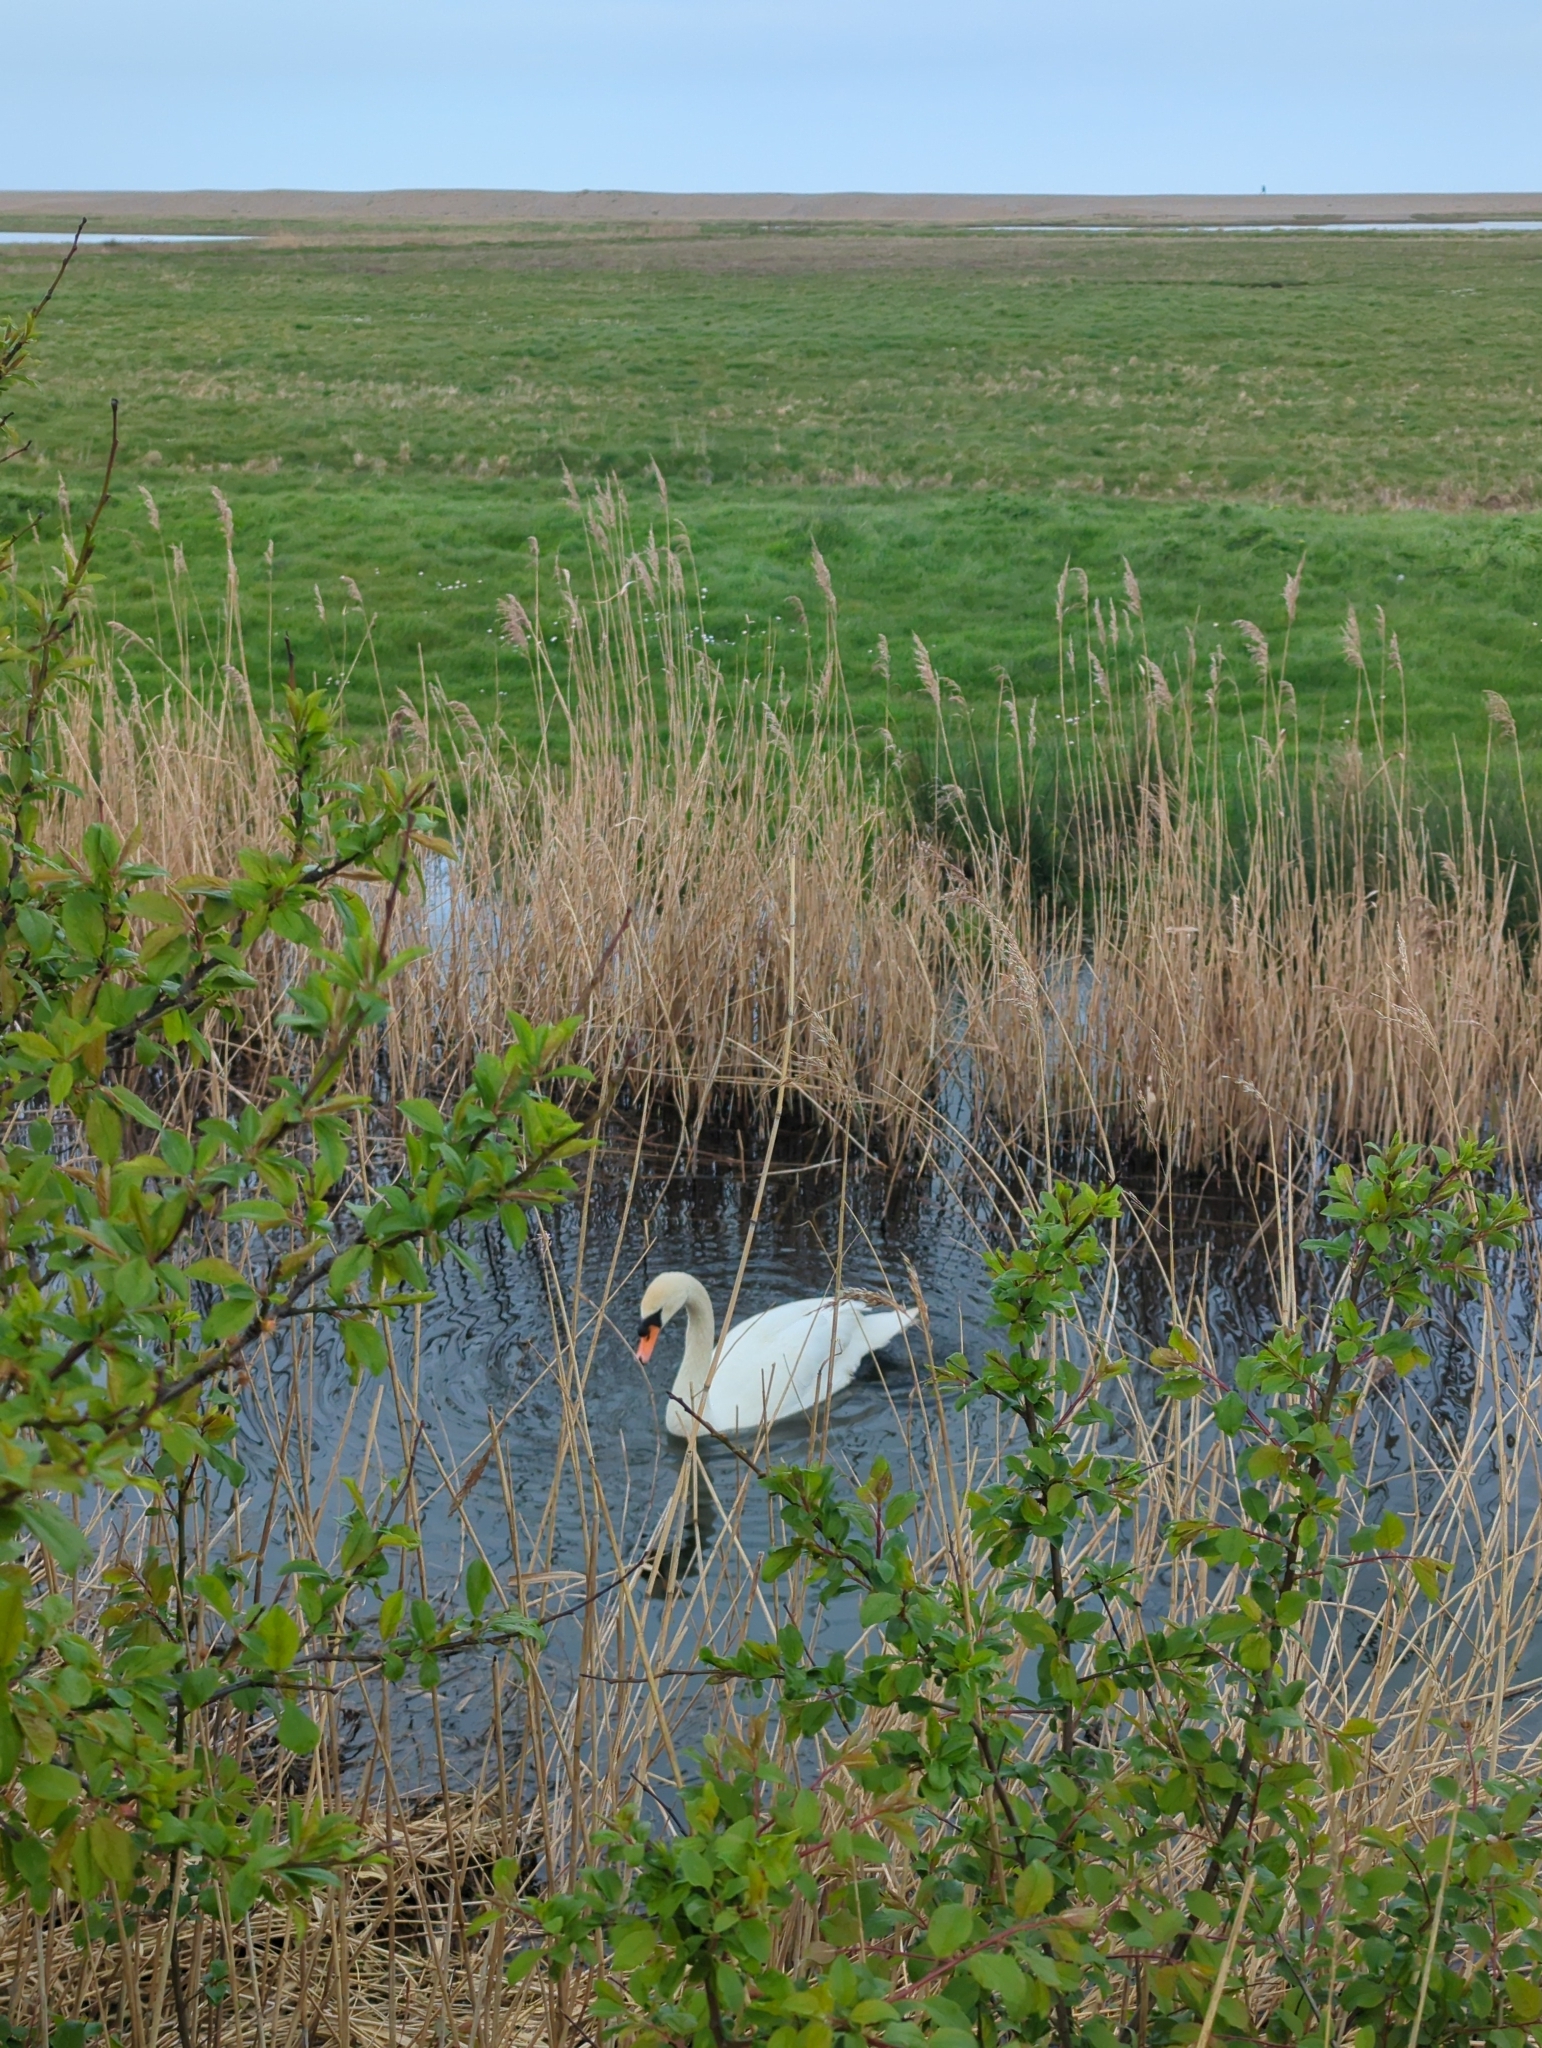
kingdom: Animalia
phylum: Chordata
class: Aves
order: Anseriformes
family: Anatidae
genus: Cygnus
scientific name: Cygnus olor
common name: Mute swan
